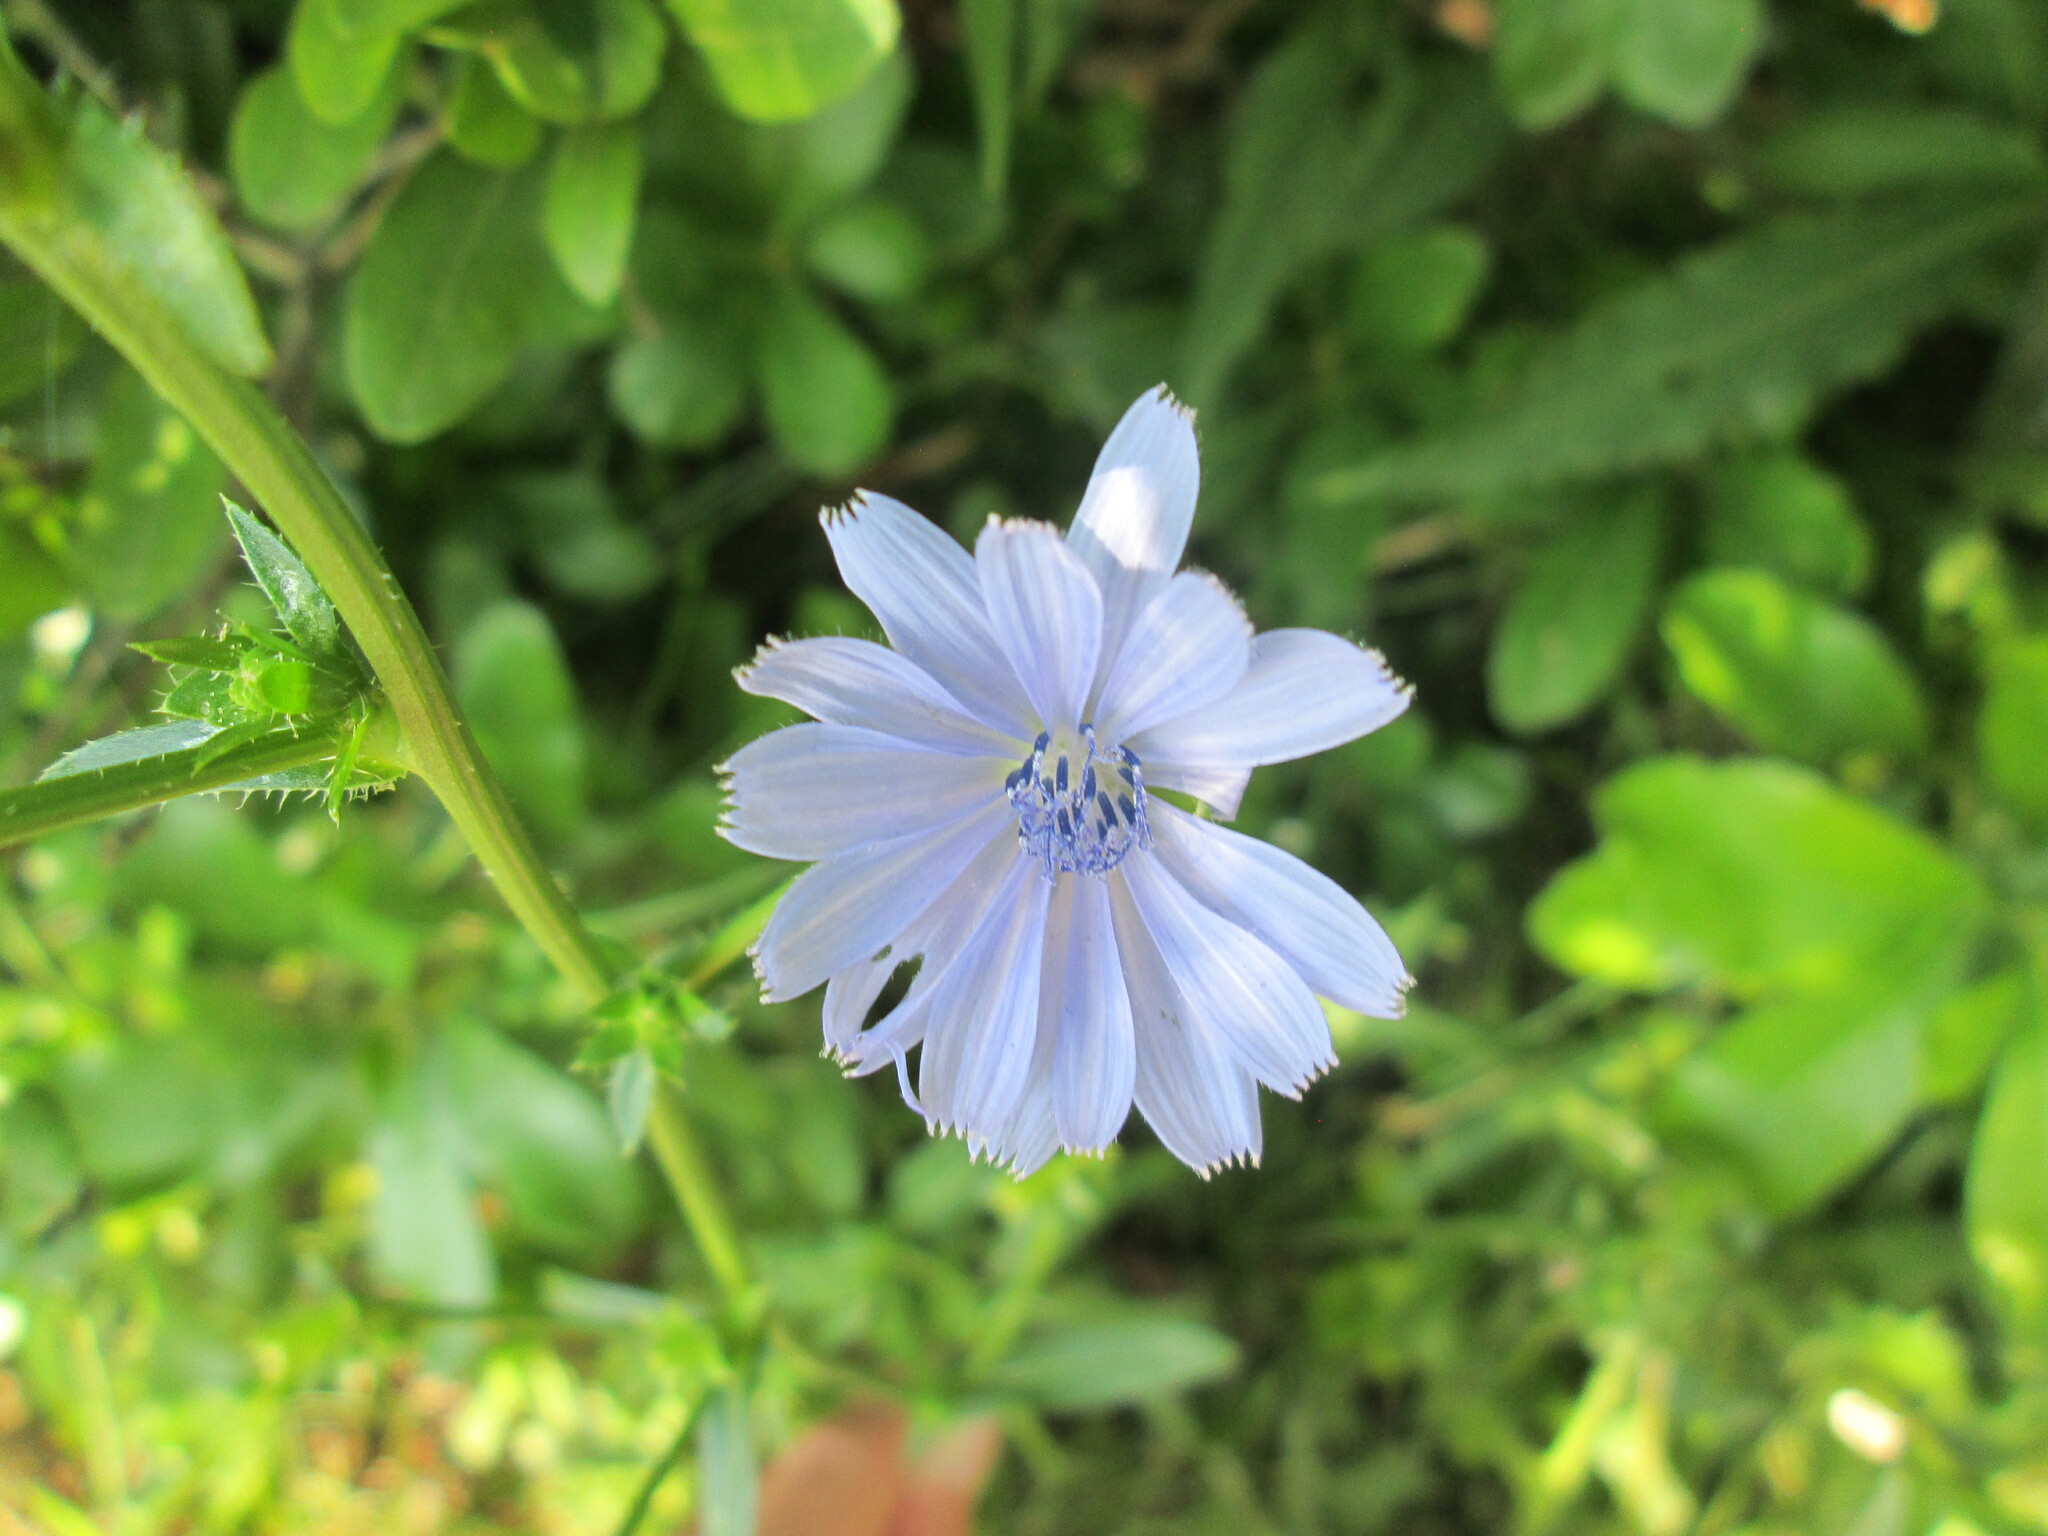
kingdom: Plantae
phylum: Tracheophyta
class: Magnoliopsida
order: Asterales
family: Asteraceae
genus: Cichorium
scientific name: Cichorium intybus
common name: Chicory
